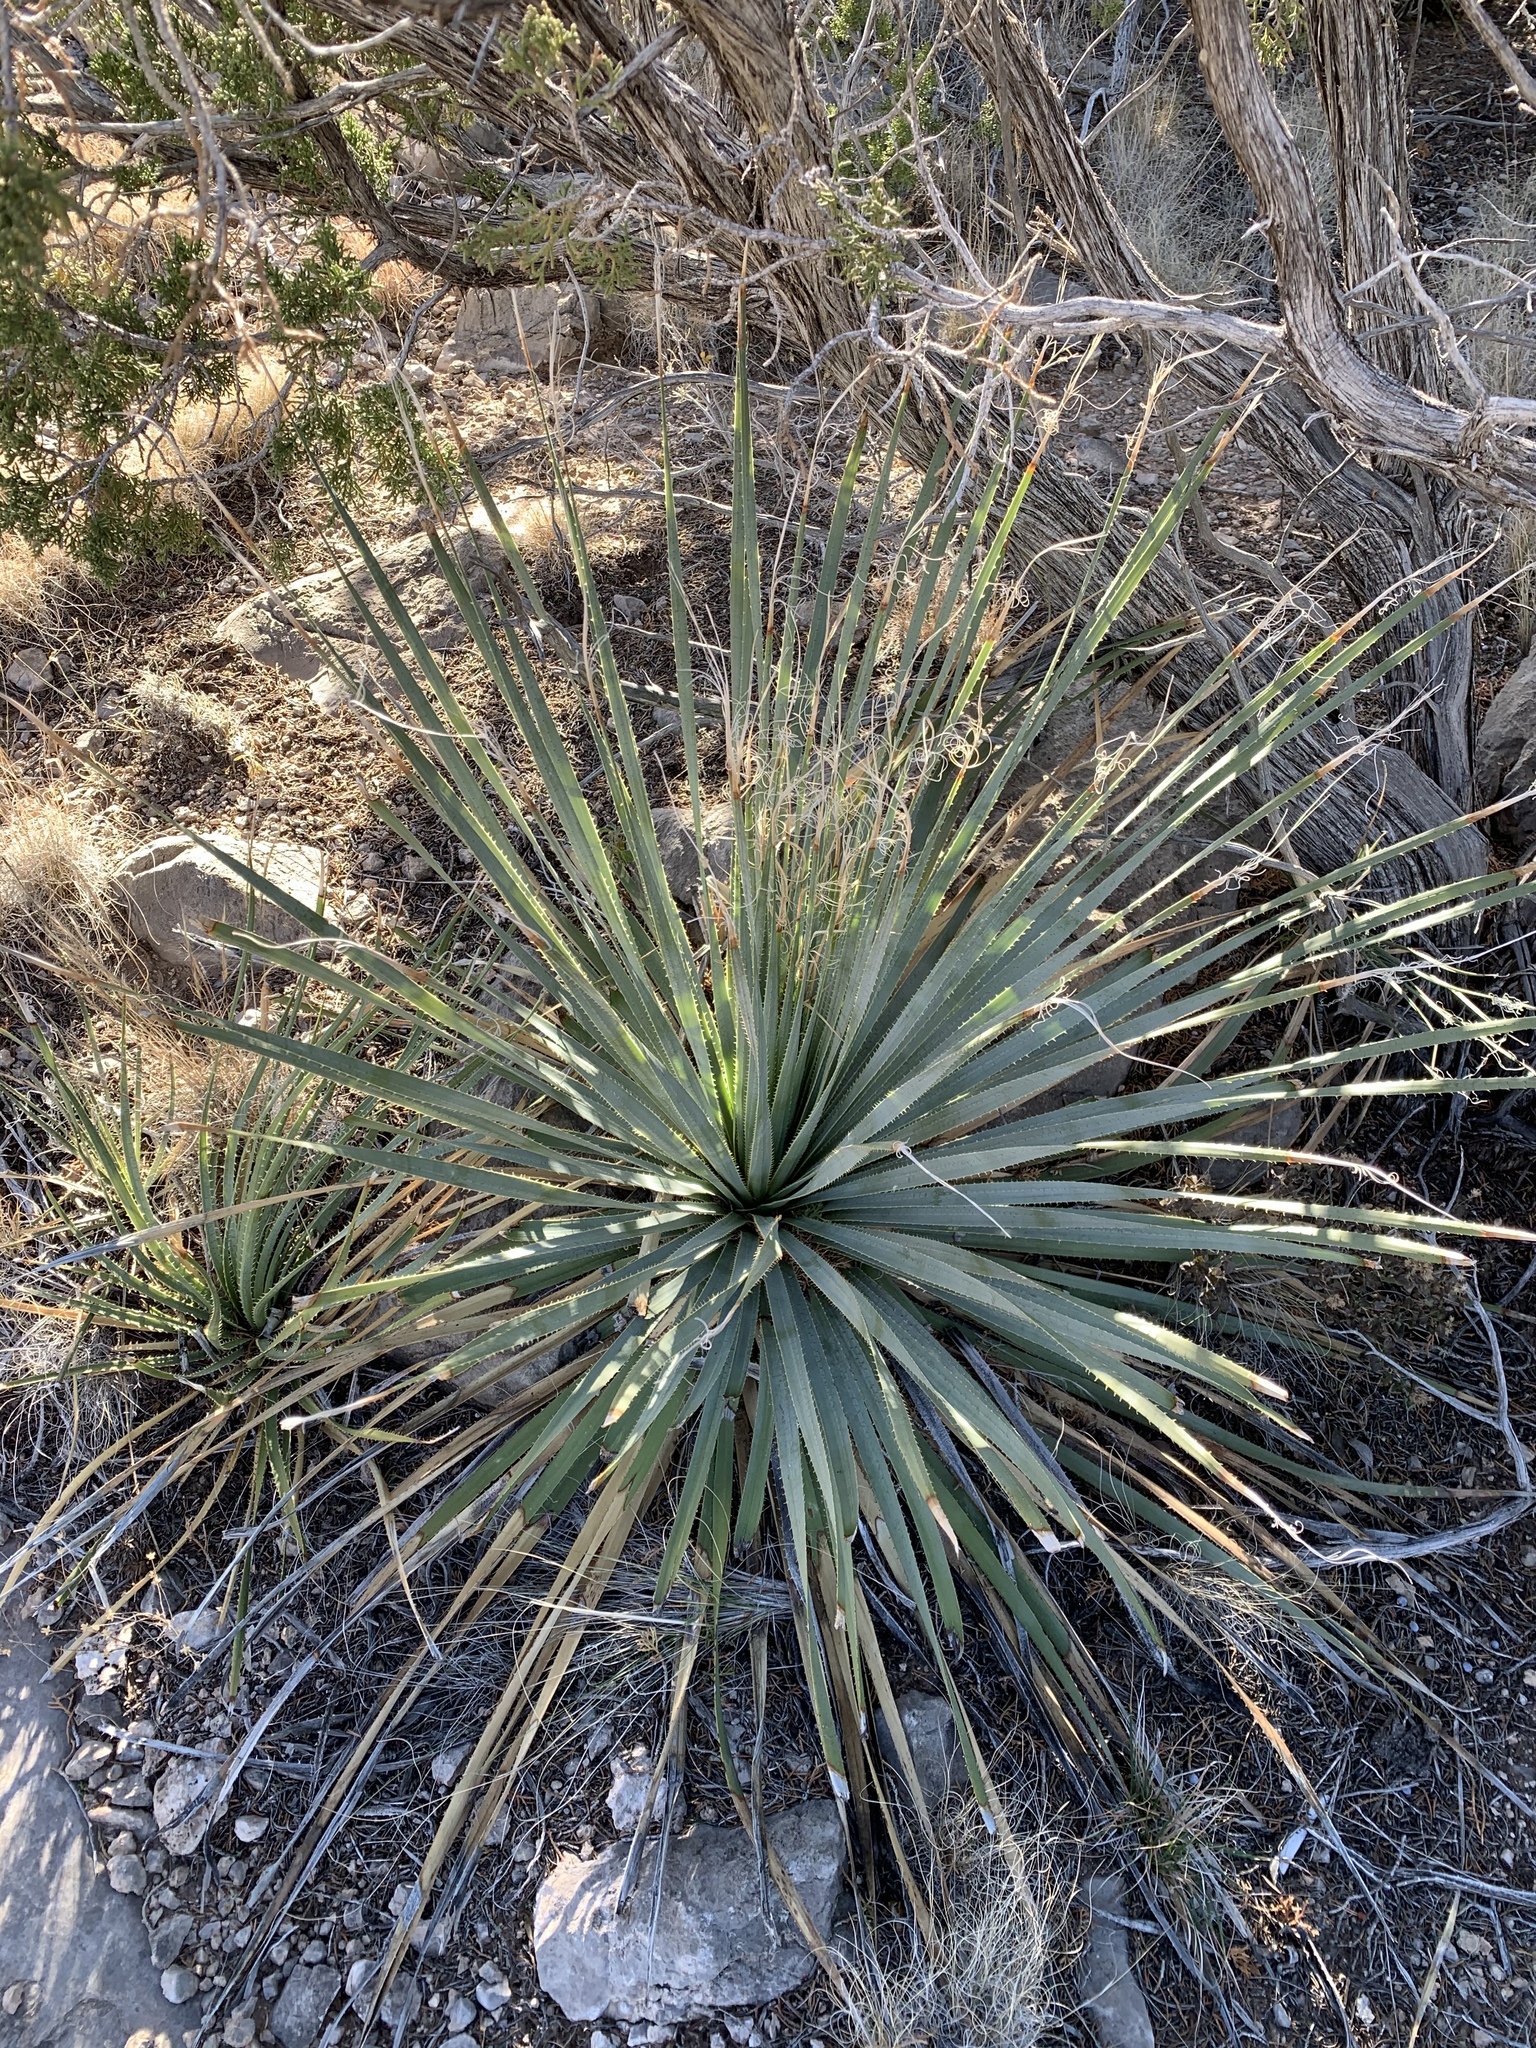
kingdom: Plantae
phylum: Tracheophyta
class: Liliopsida
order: Asparagales
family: Asparagaceae
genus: Dasylirion
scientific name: Dasylirion wheeleri
